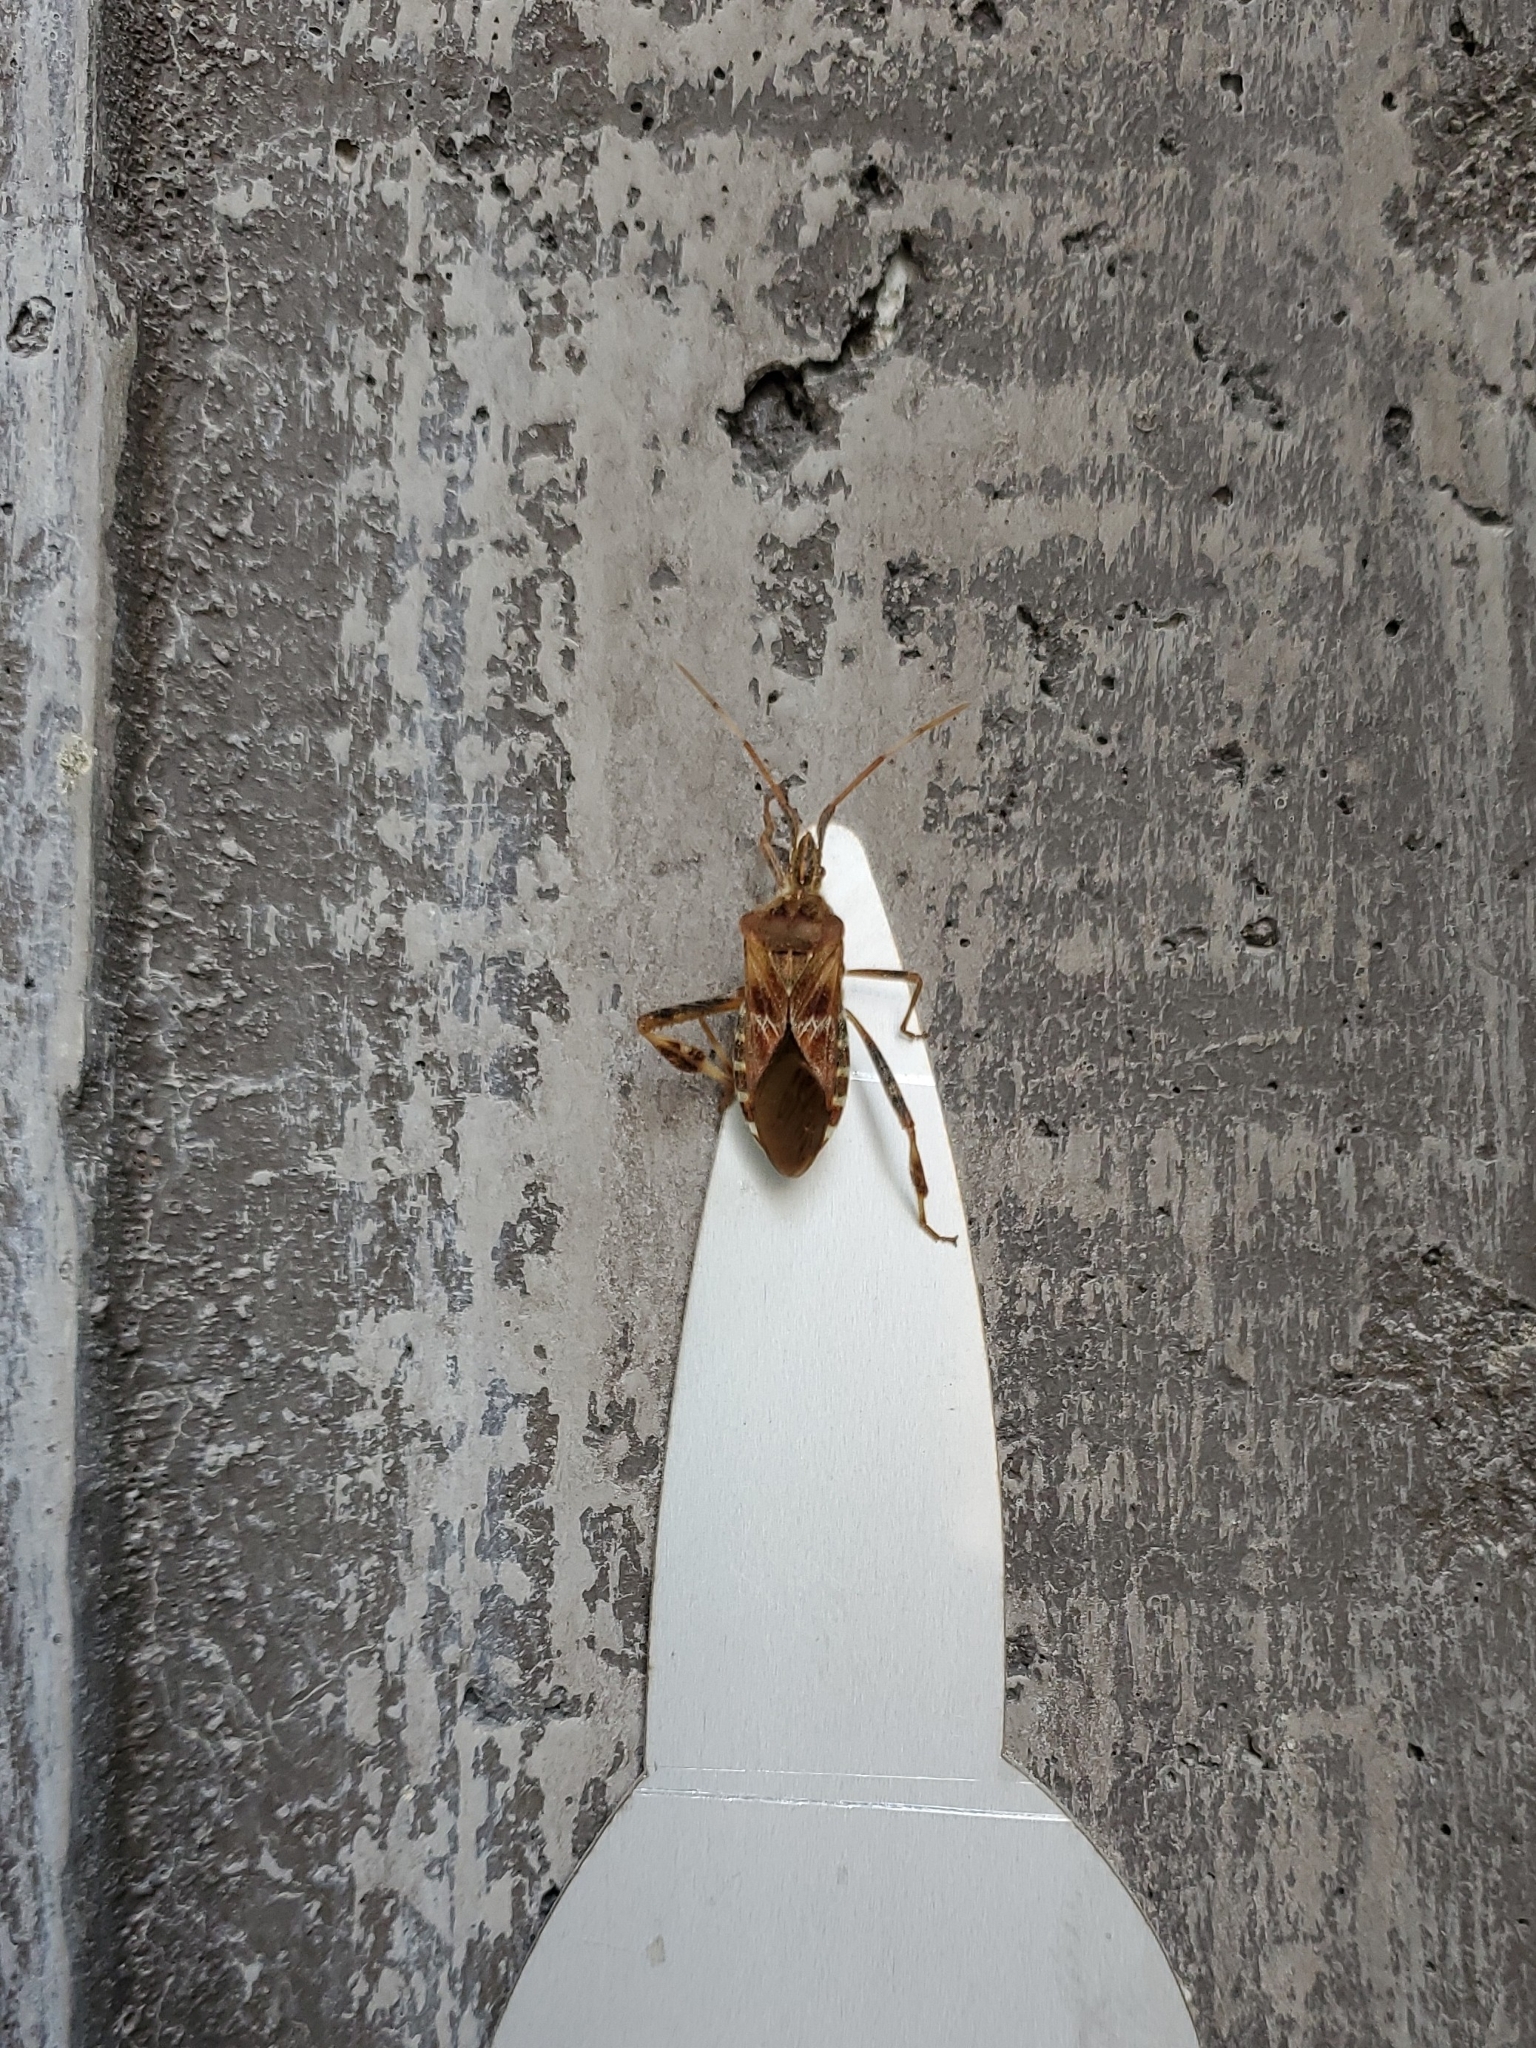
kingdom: Animalia
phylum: Arthropoda
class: Insecta
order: Hemiptera
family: Coreidae
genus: Leptoglossus
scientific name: Leptoglossus occidentalis
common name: Western conifer-seed bug
